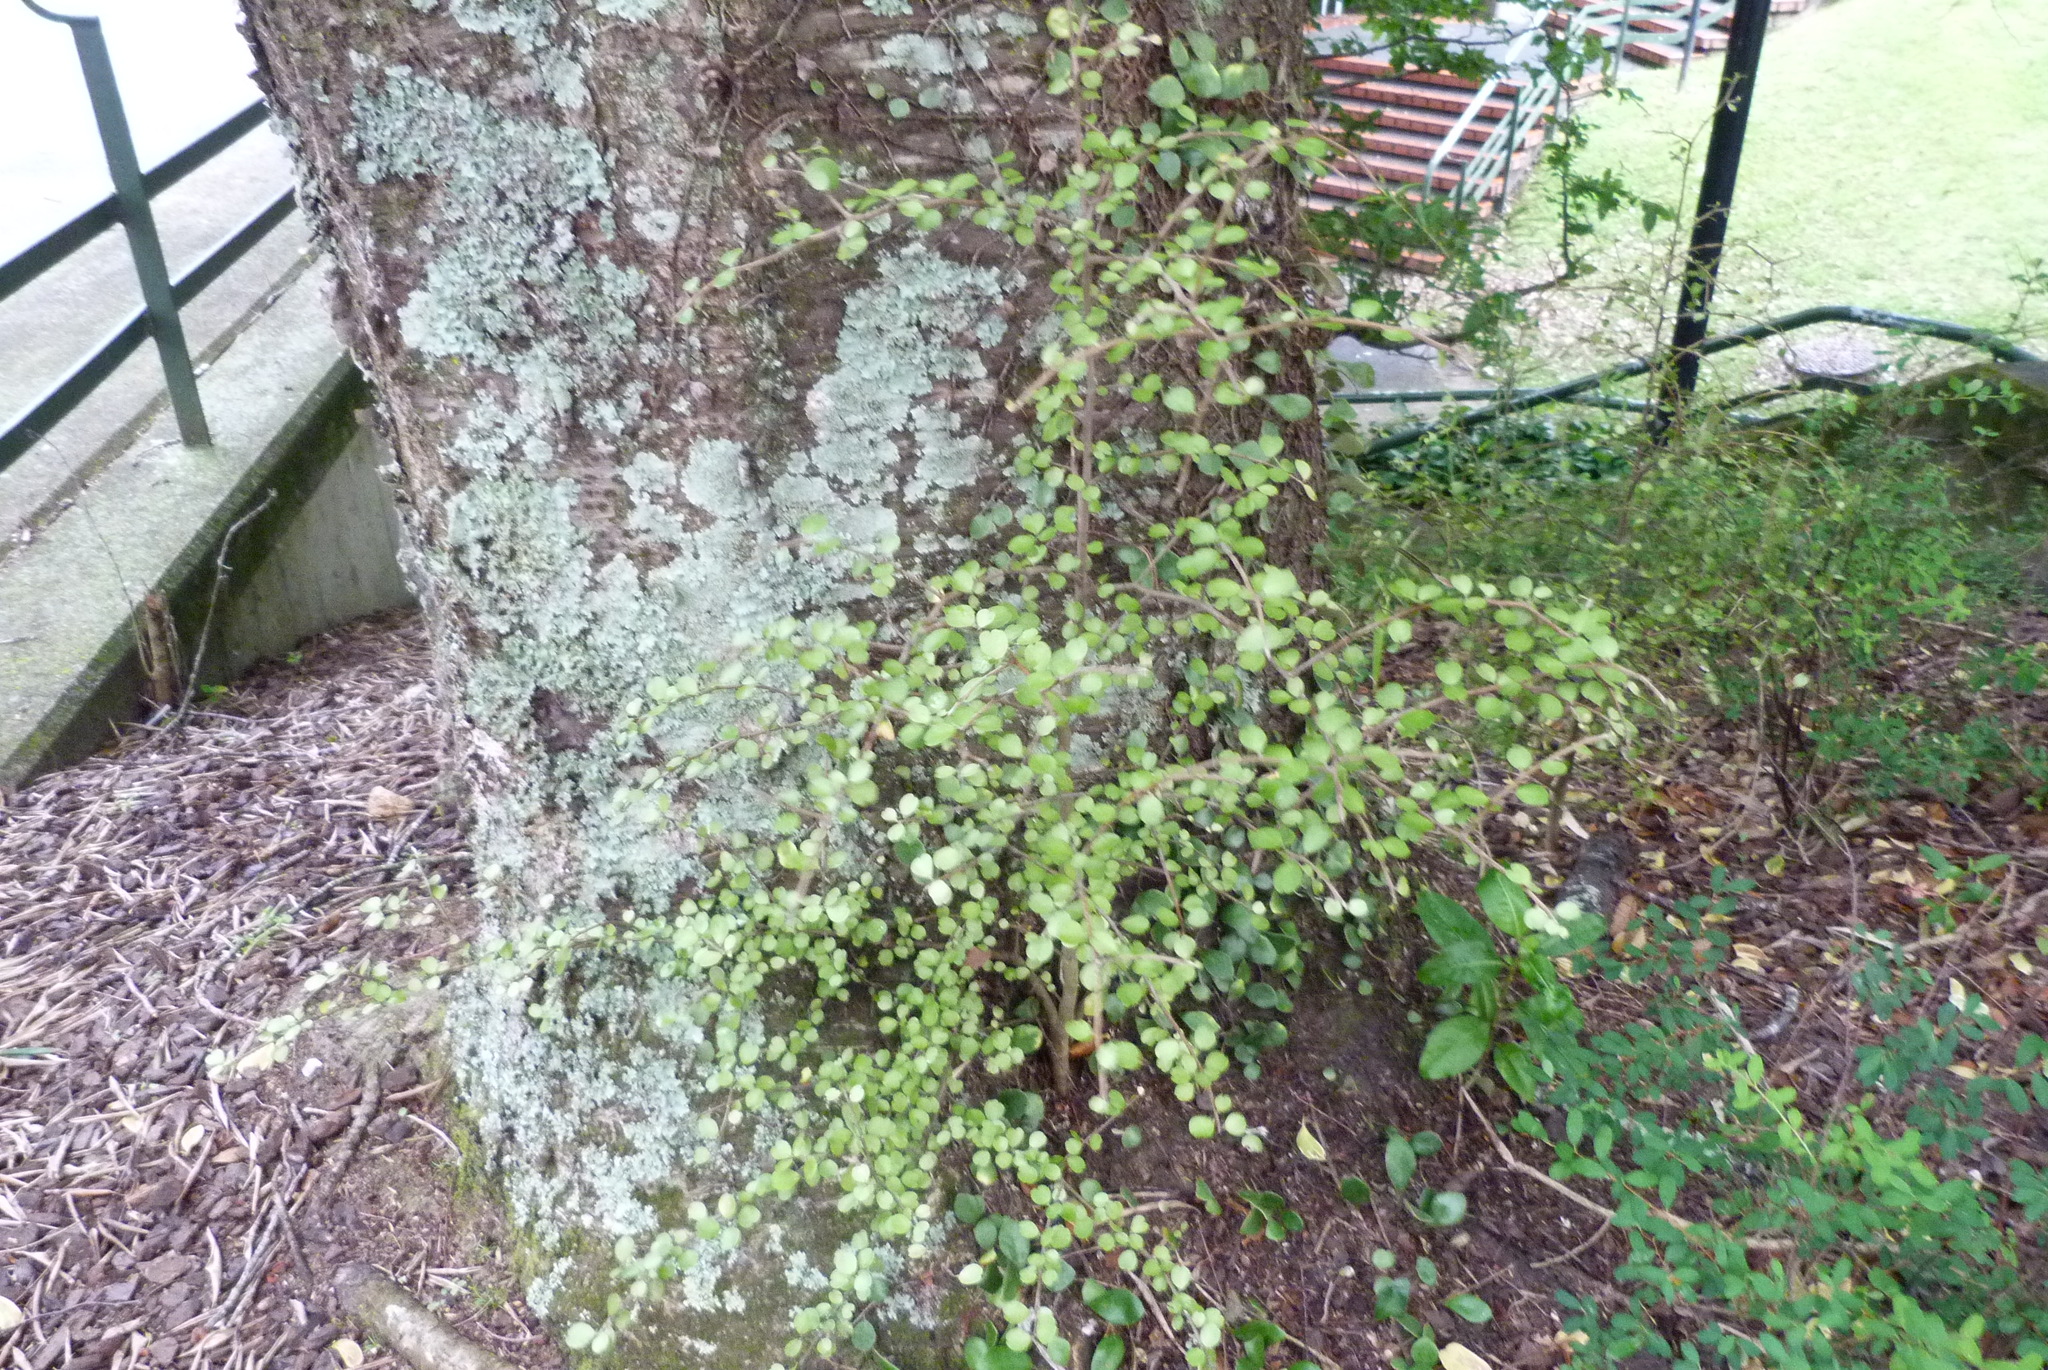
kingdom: Plantae
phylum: Tracheophyta
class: Magnoliopsida
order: Ericales
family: Primulaceae
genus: Myrsine
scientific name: Myrsine aquilonia
